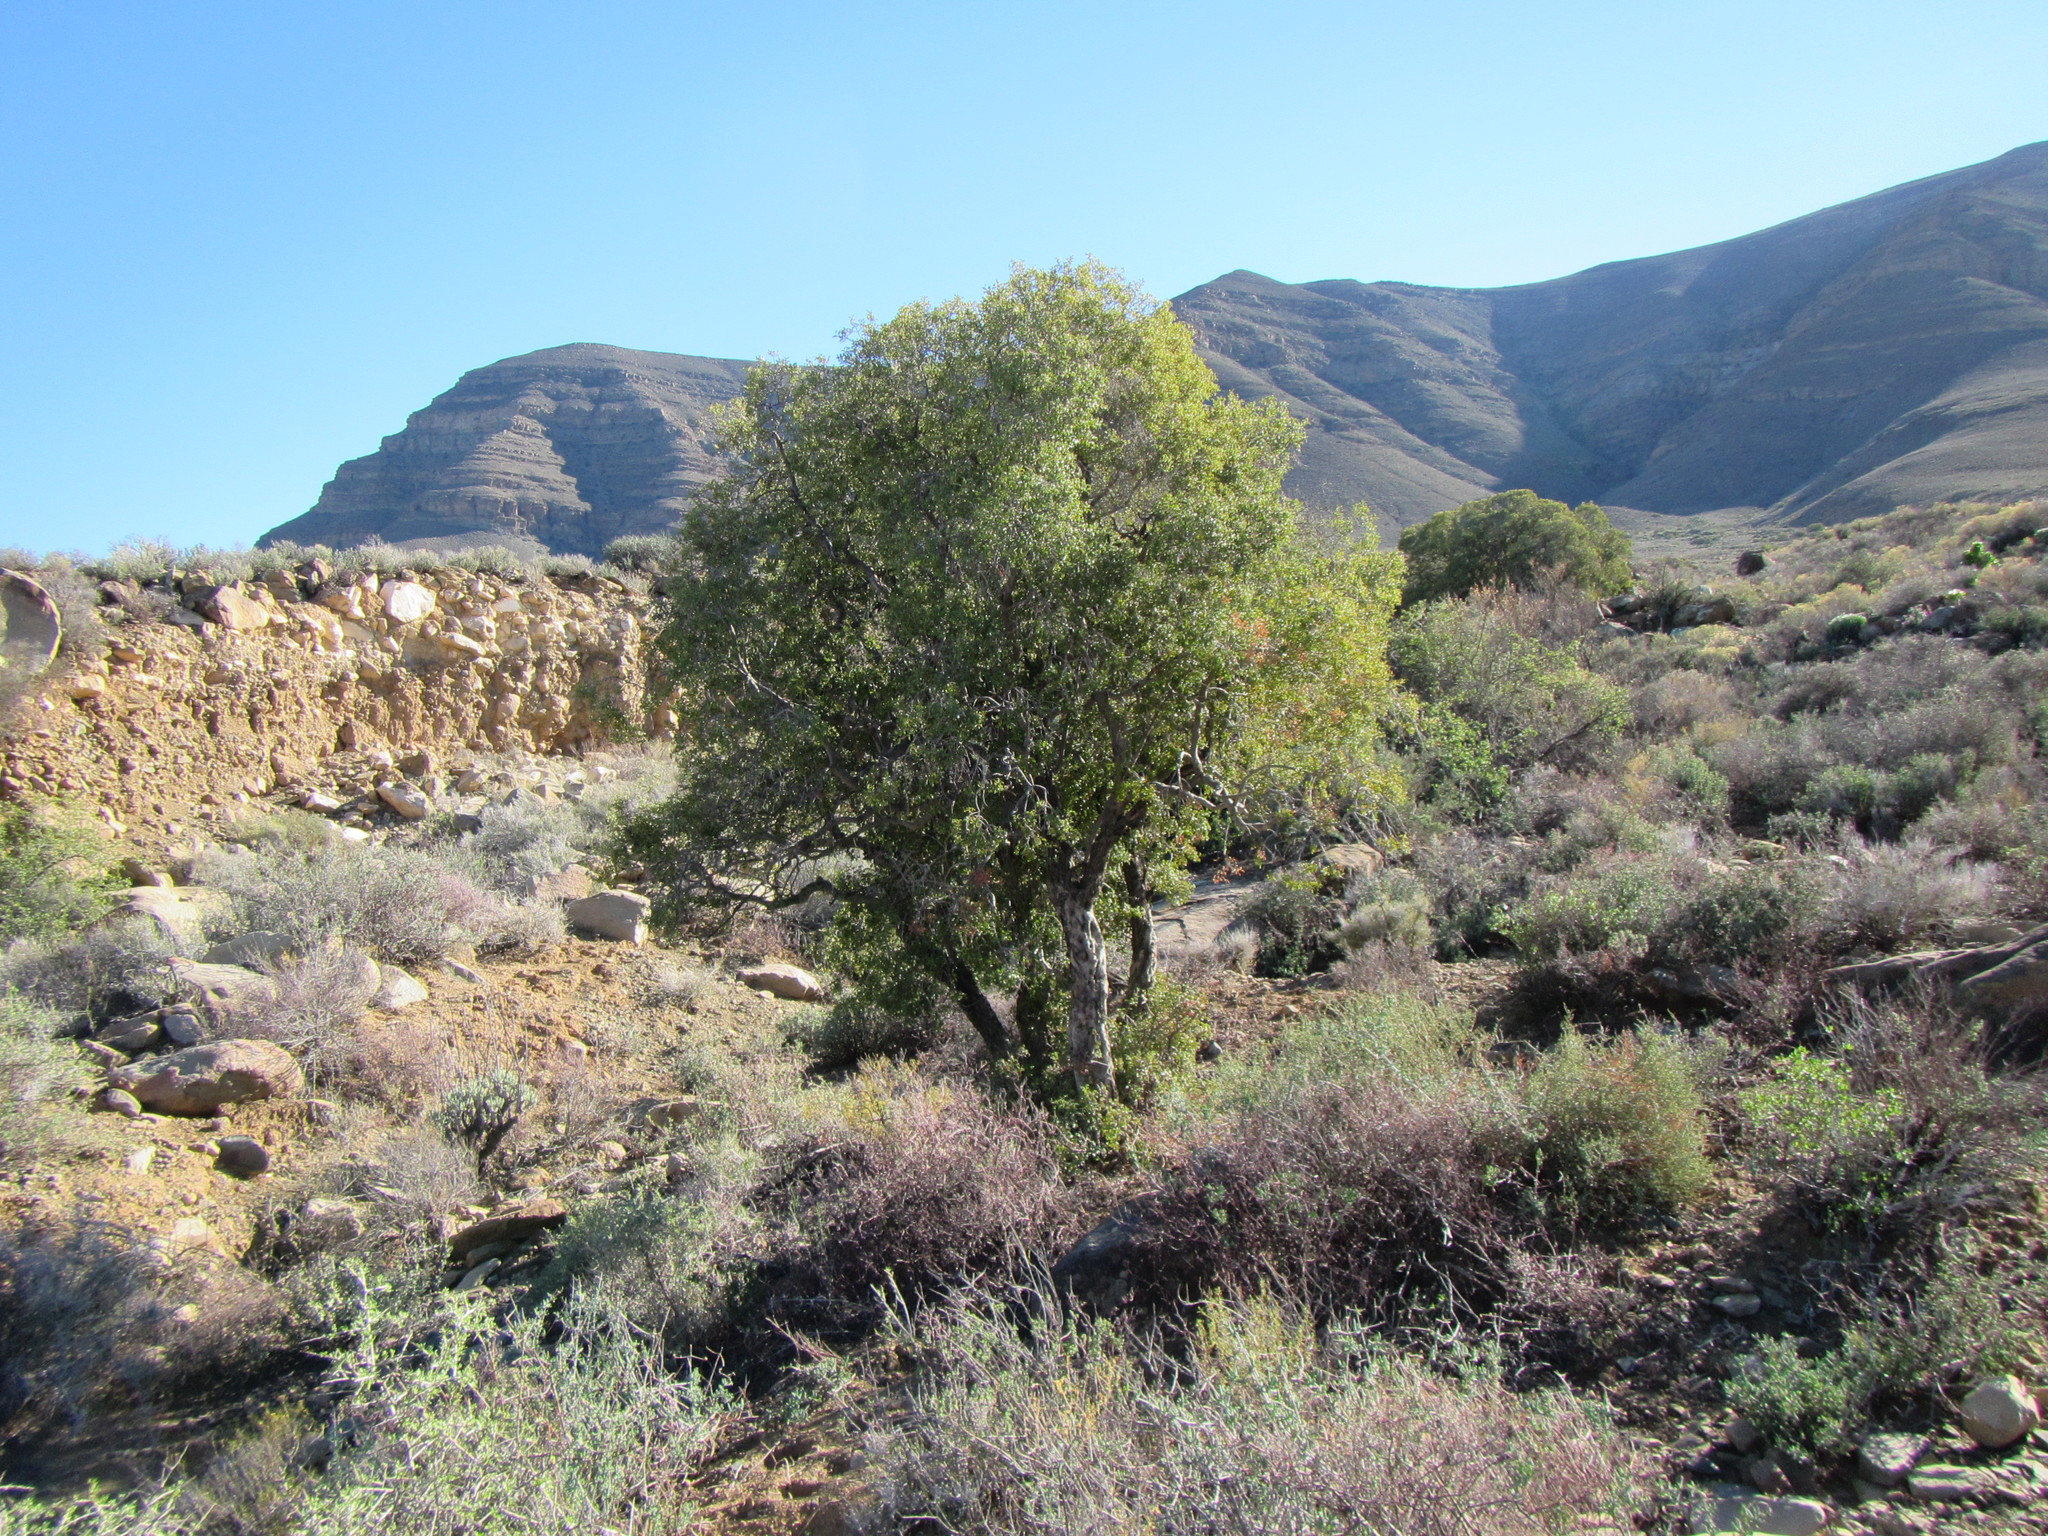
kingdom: Plantae
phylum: Tracheophyta
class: Magnoliopsida
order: Ericales
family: Ebenaceae
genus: Euclea
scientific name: Euclea undulata
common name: Small-leaved guarri
